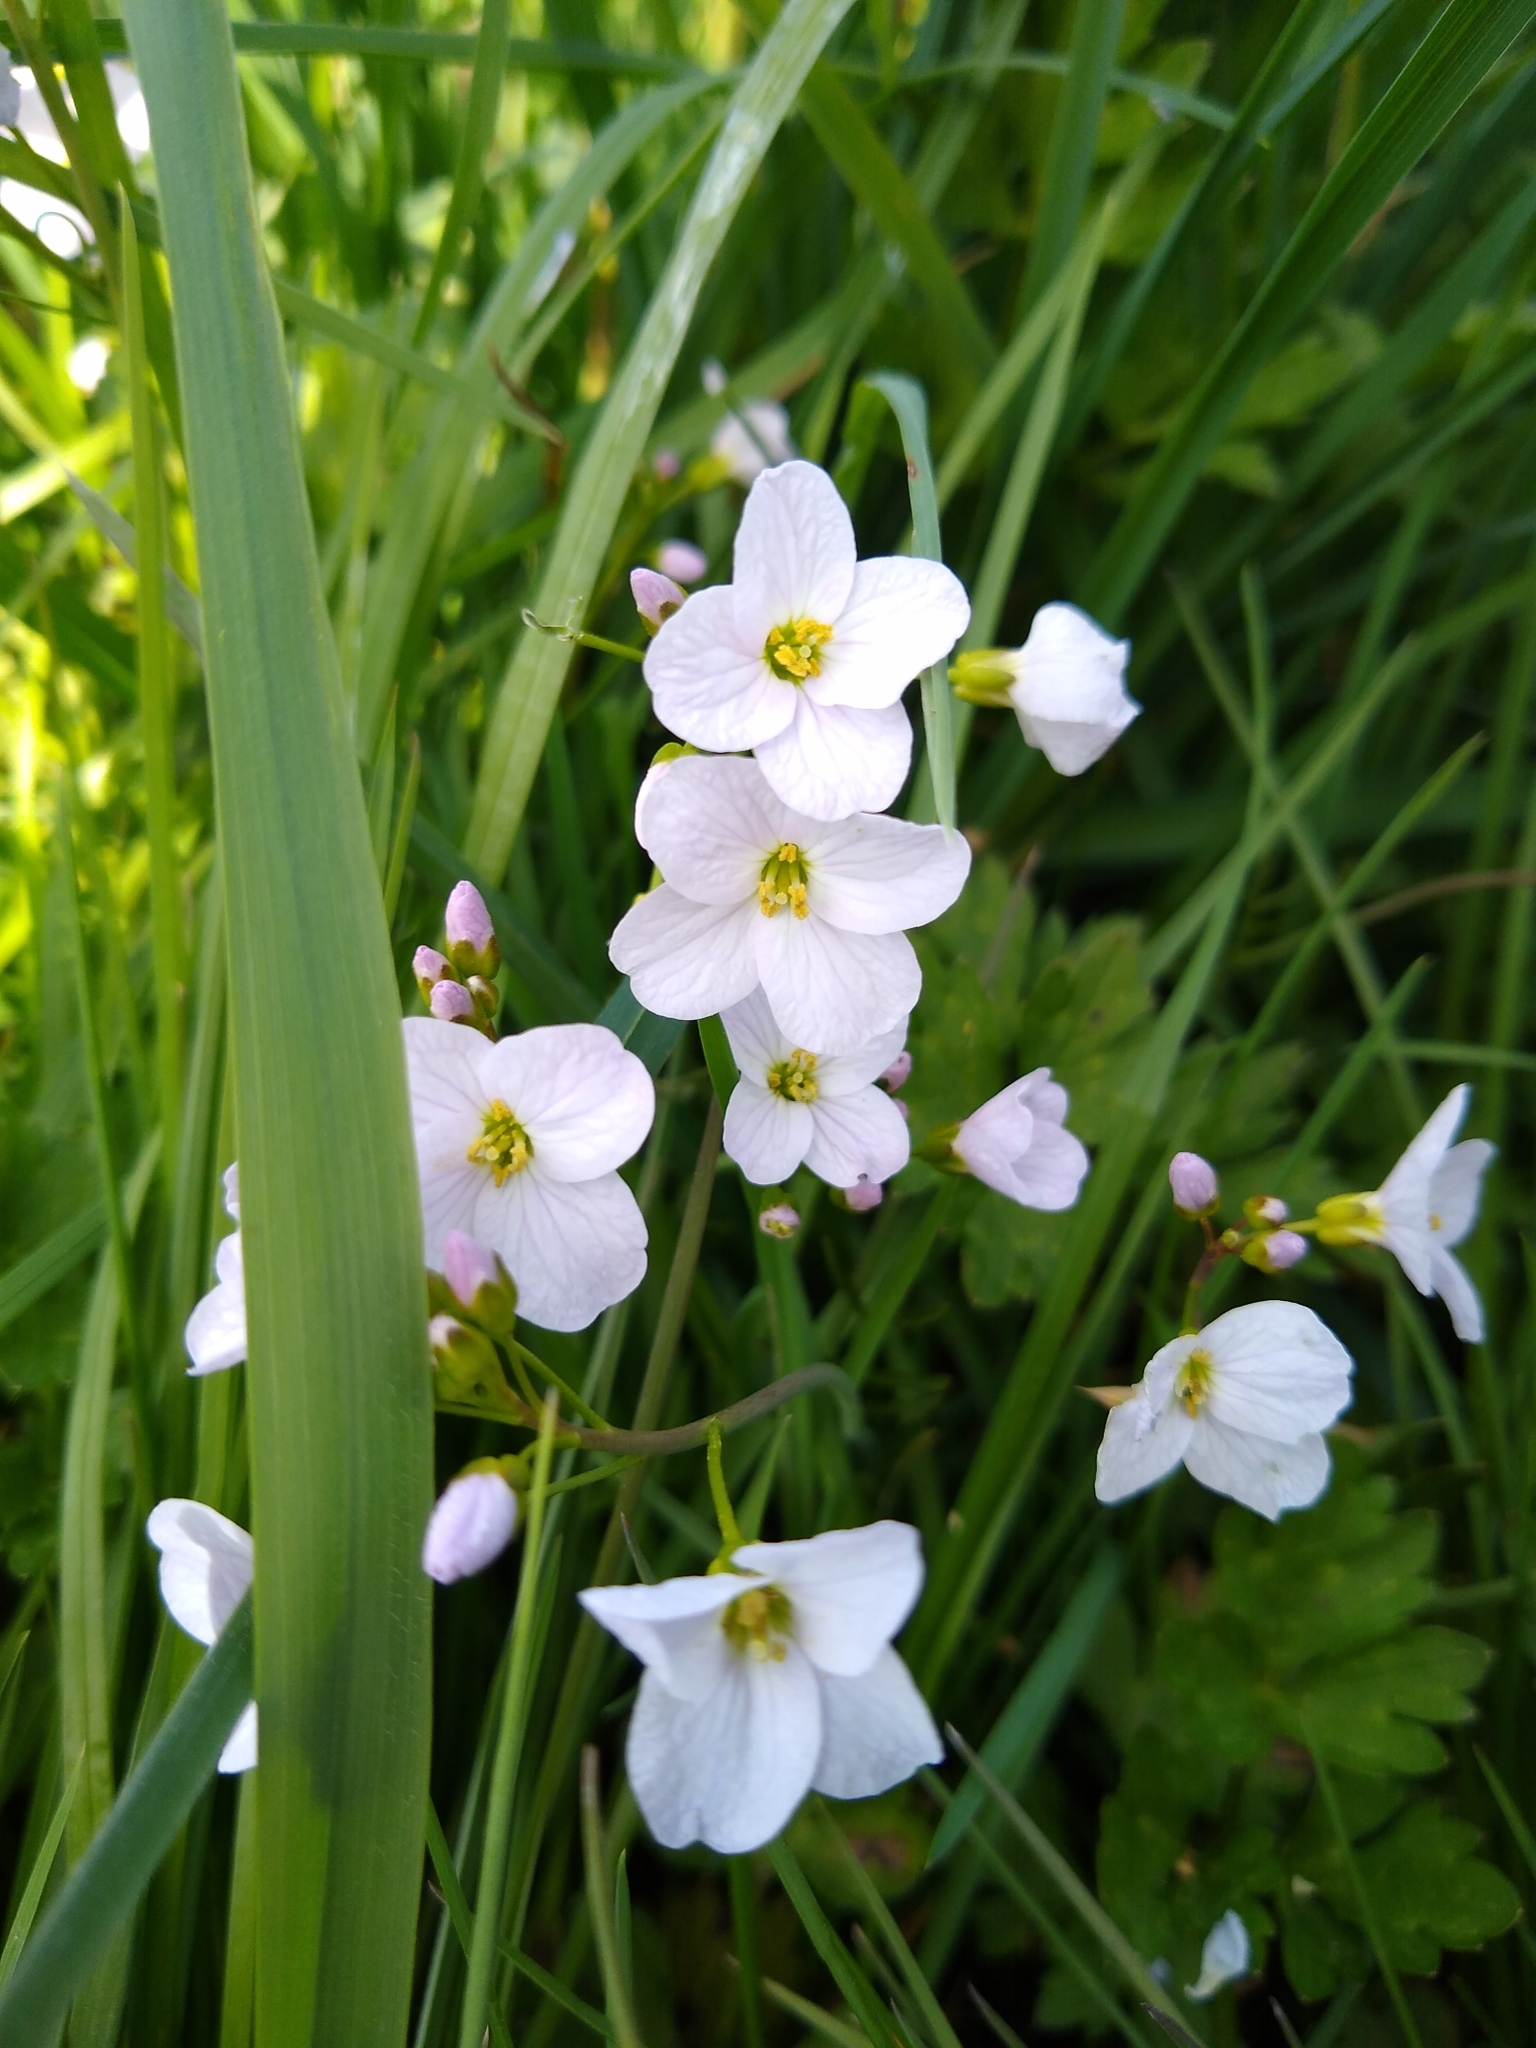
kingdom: Plantae
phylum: Tracheophyta
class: Magnoliopsida
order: Brassicales
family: Brassicaceae
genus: Cardamine
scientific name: Cardamine pratensis
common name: Cuckoo flower
